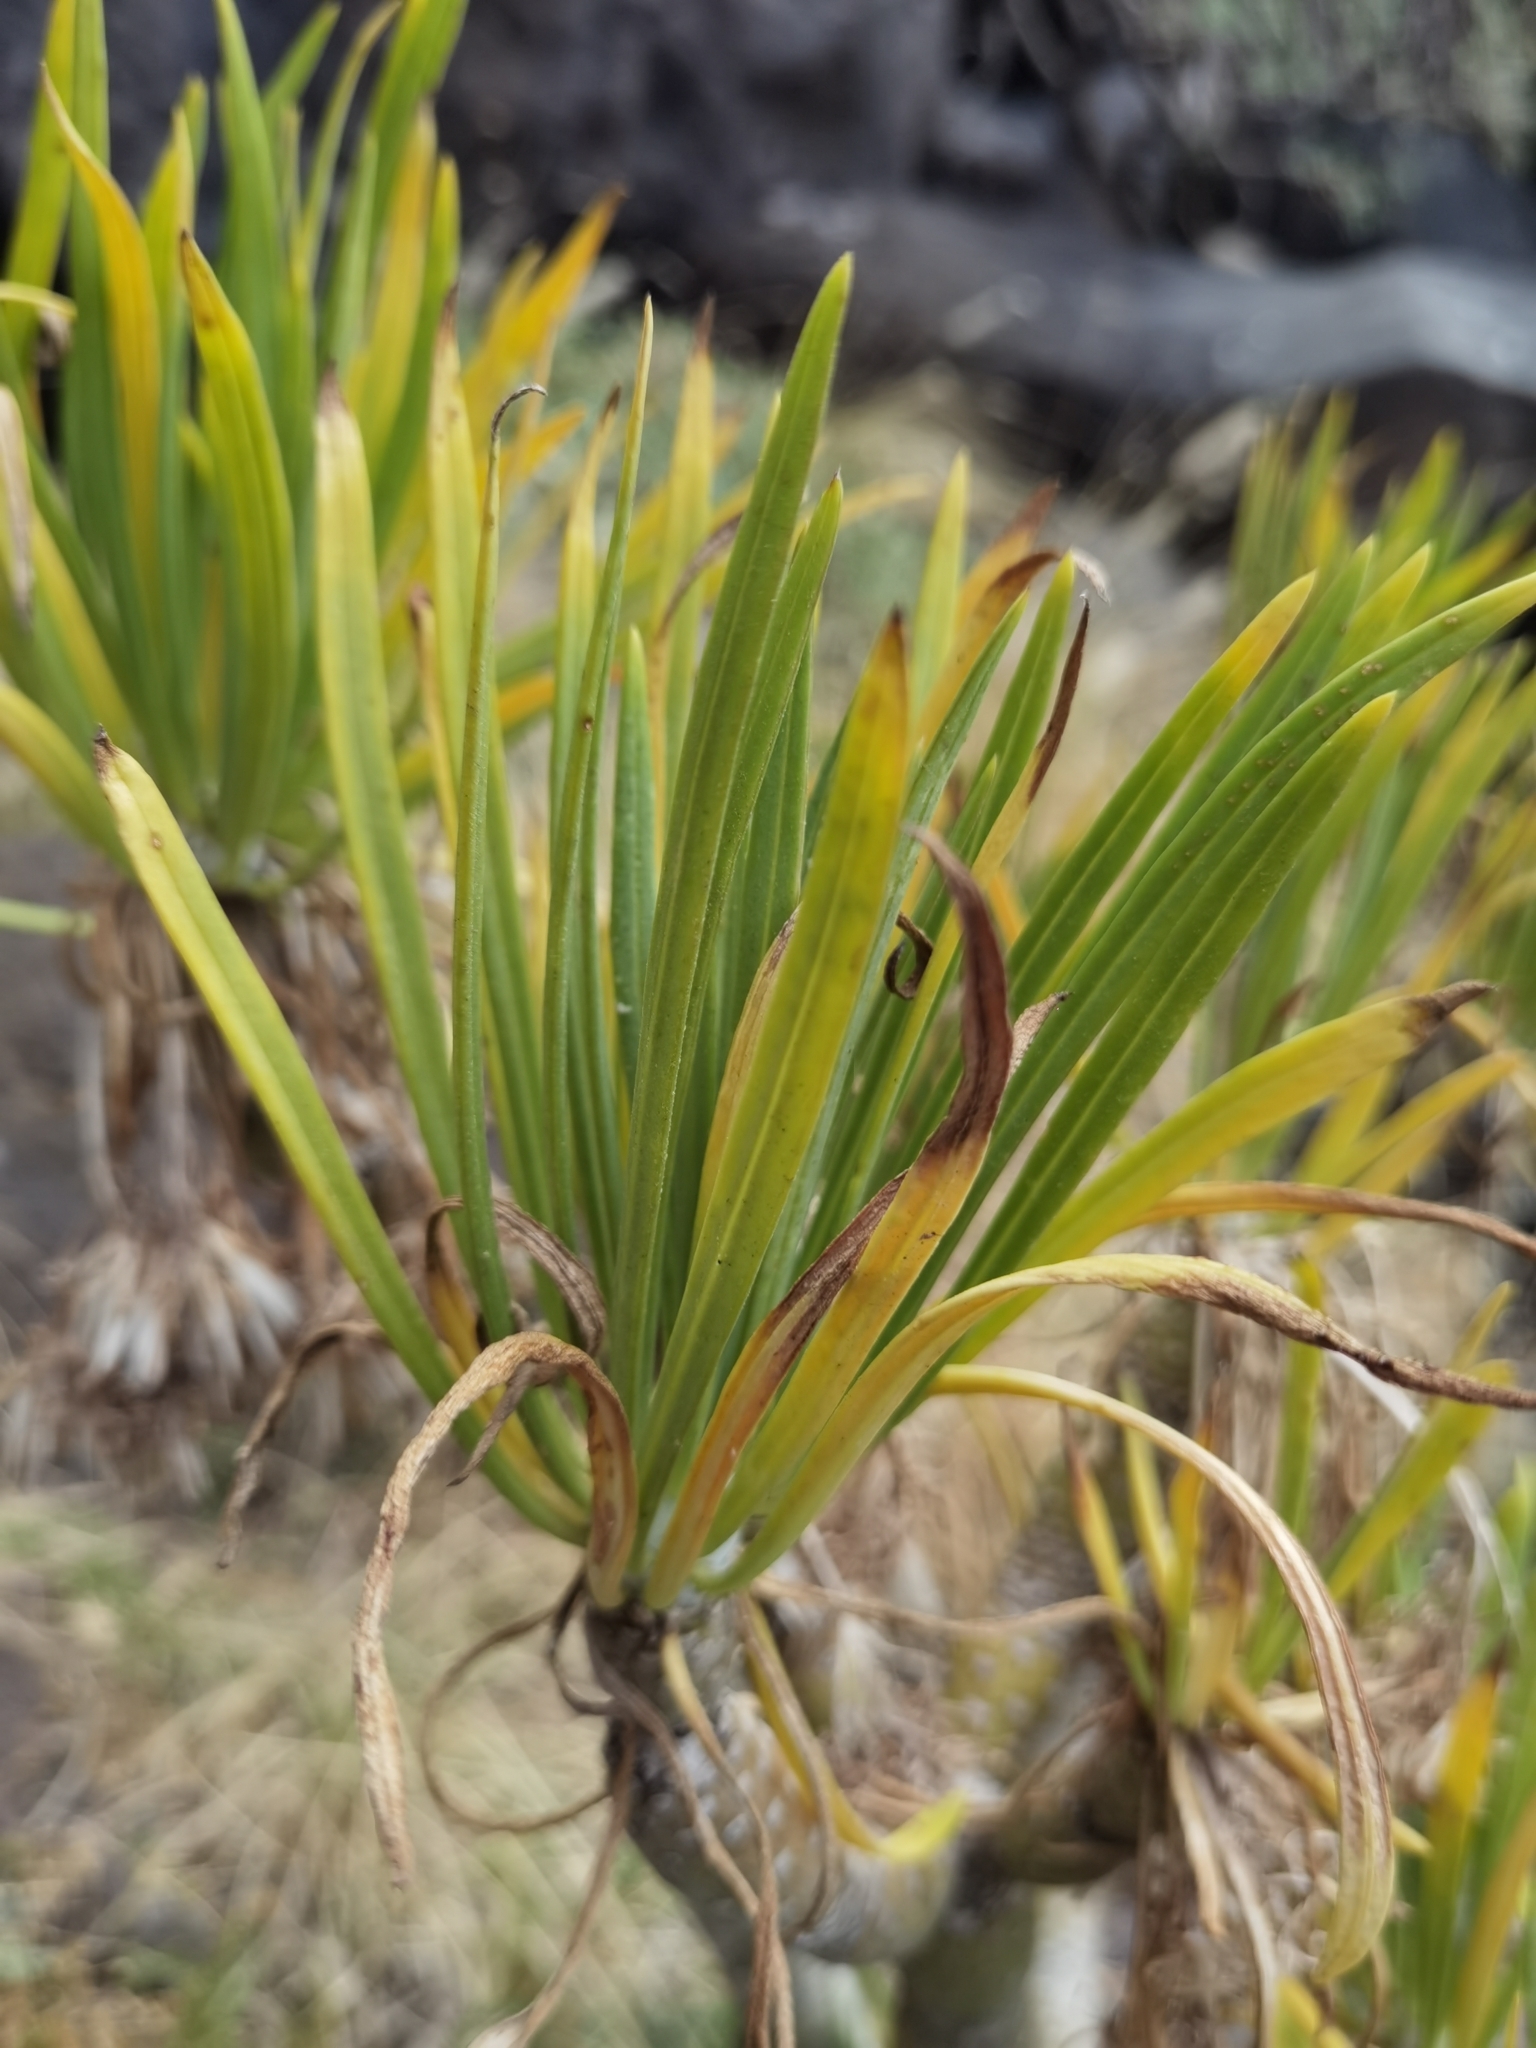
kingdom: Plantae
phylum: Tracheophyta
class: Magnoliopsida
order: Asterales
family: Asteraceae
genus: Kleinia
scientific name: Kleinia neriifolia
